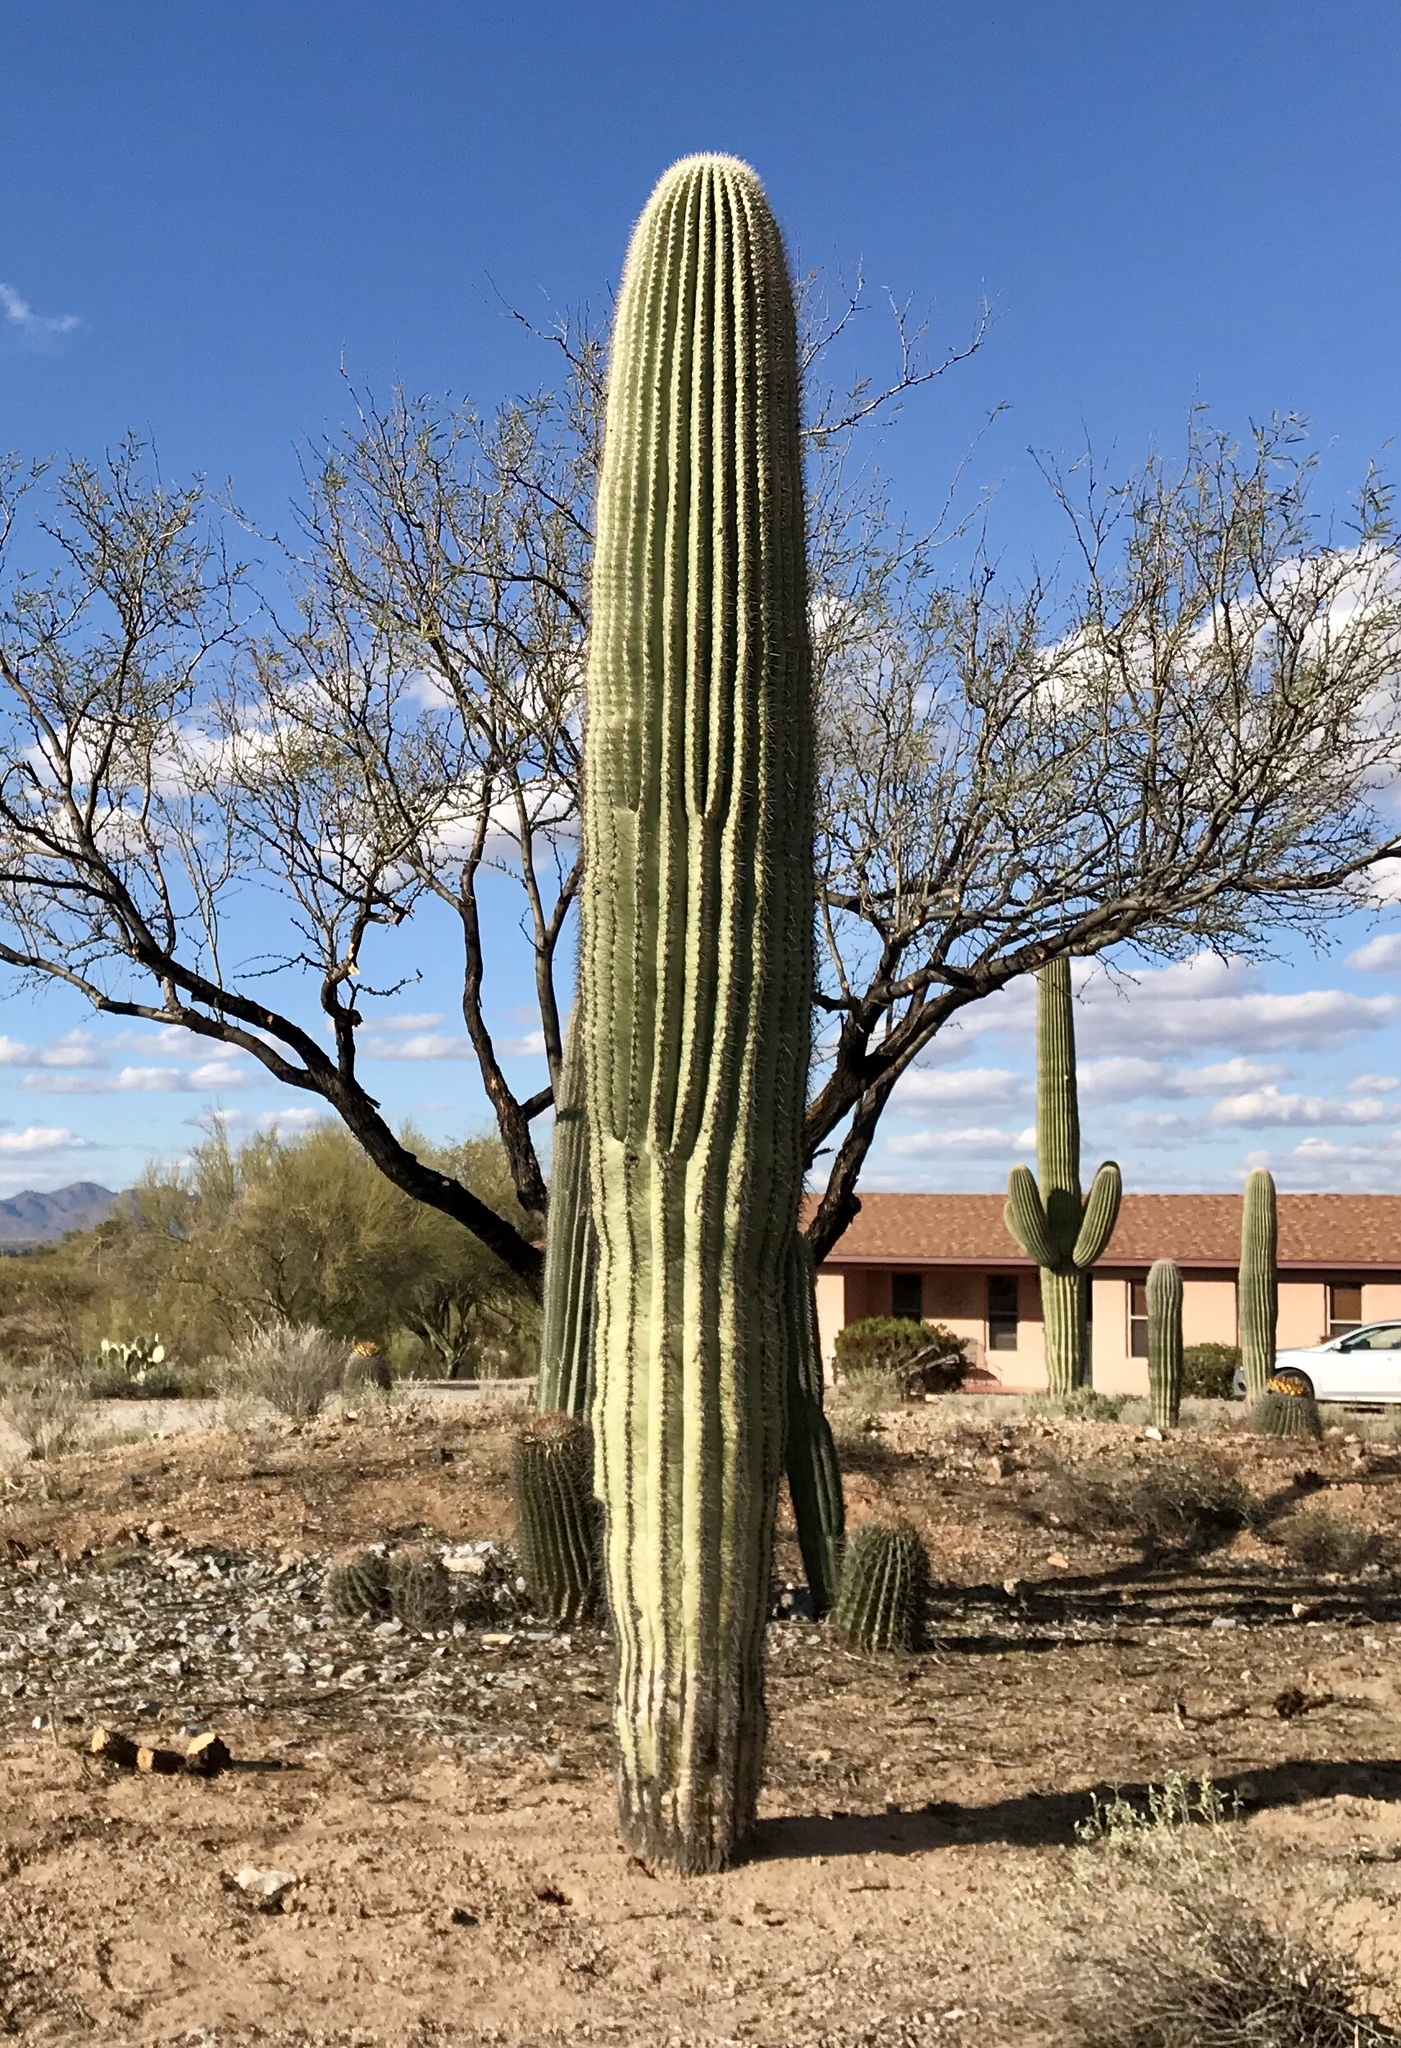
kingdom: Plantae
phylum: Tracheophyta
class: Magnoliopsida
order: Caryophyllales
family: Cactaceae
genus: Carnegiea
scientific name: Carnegiea gigantea
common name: Saguaro
